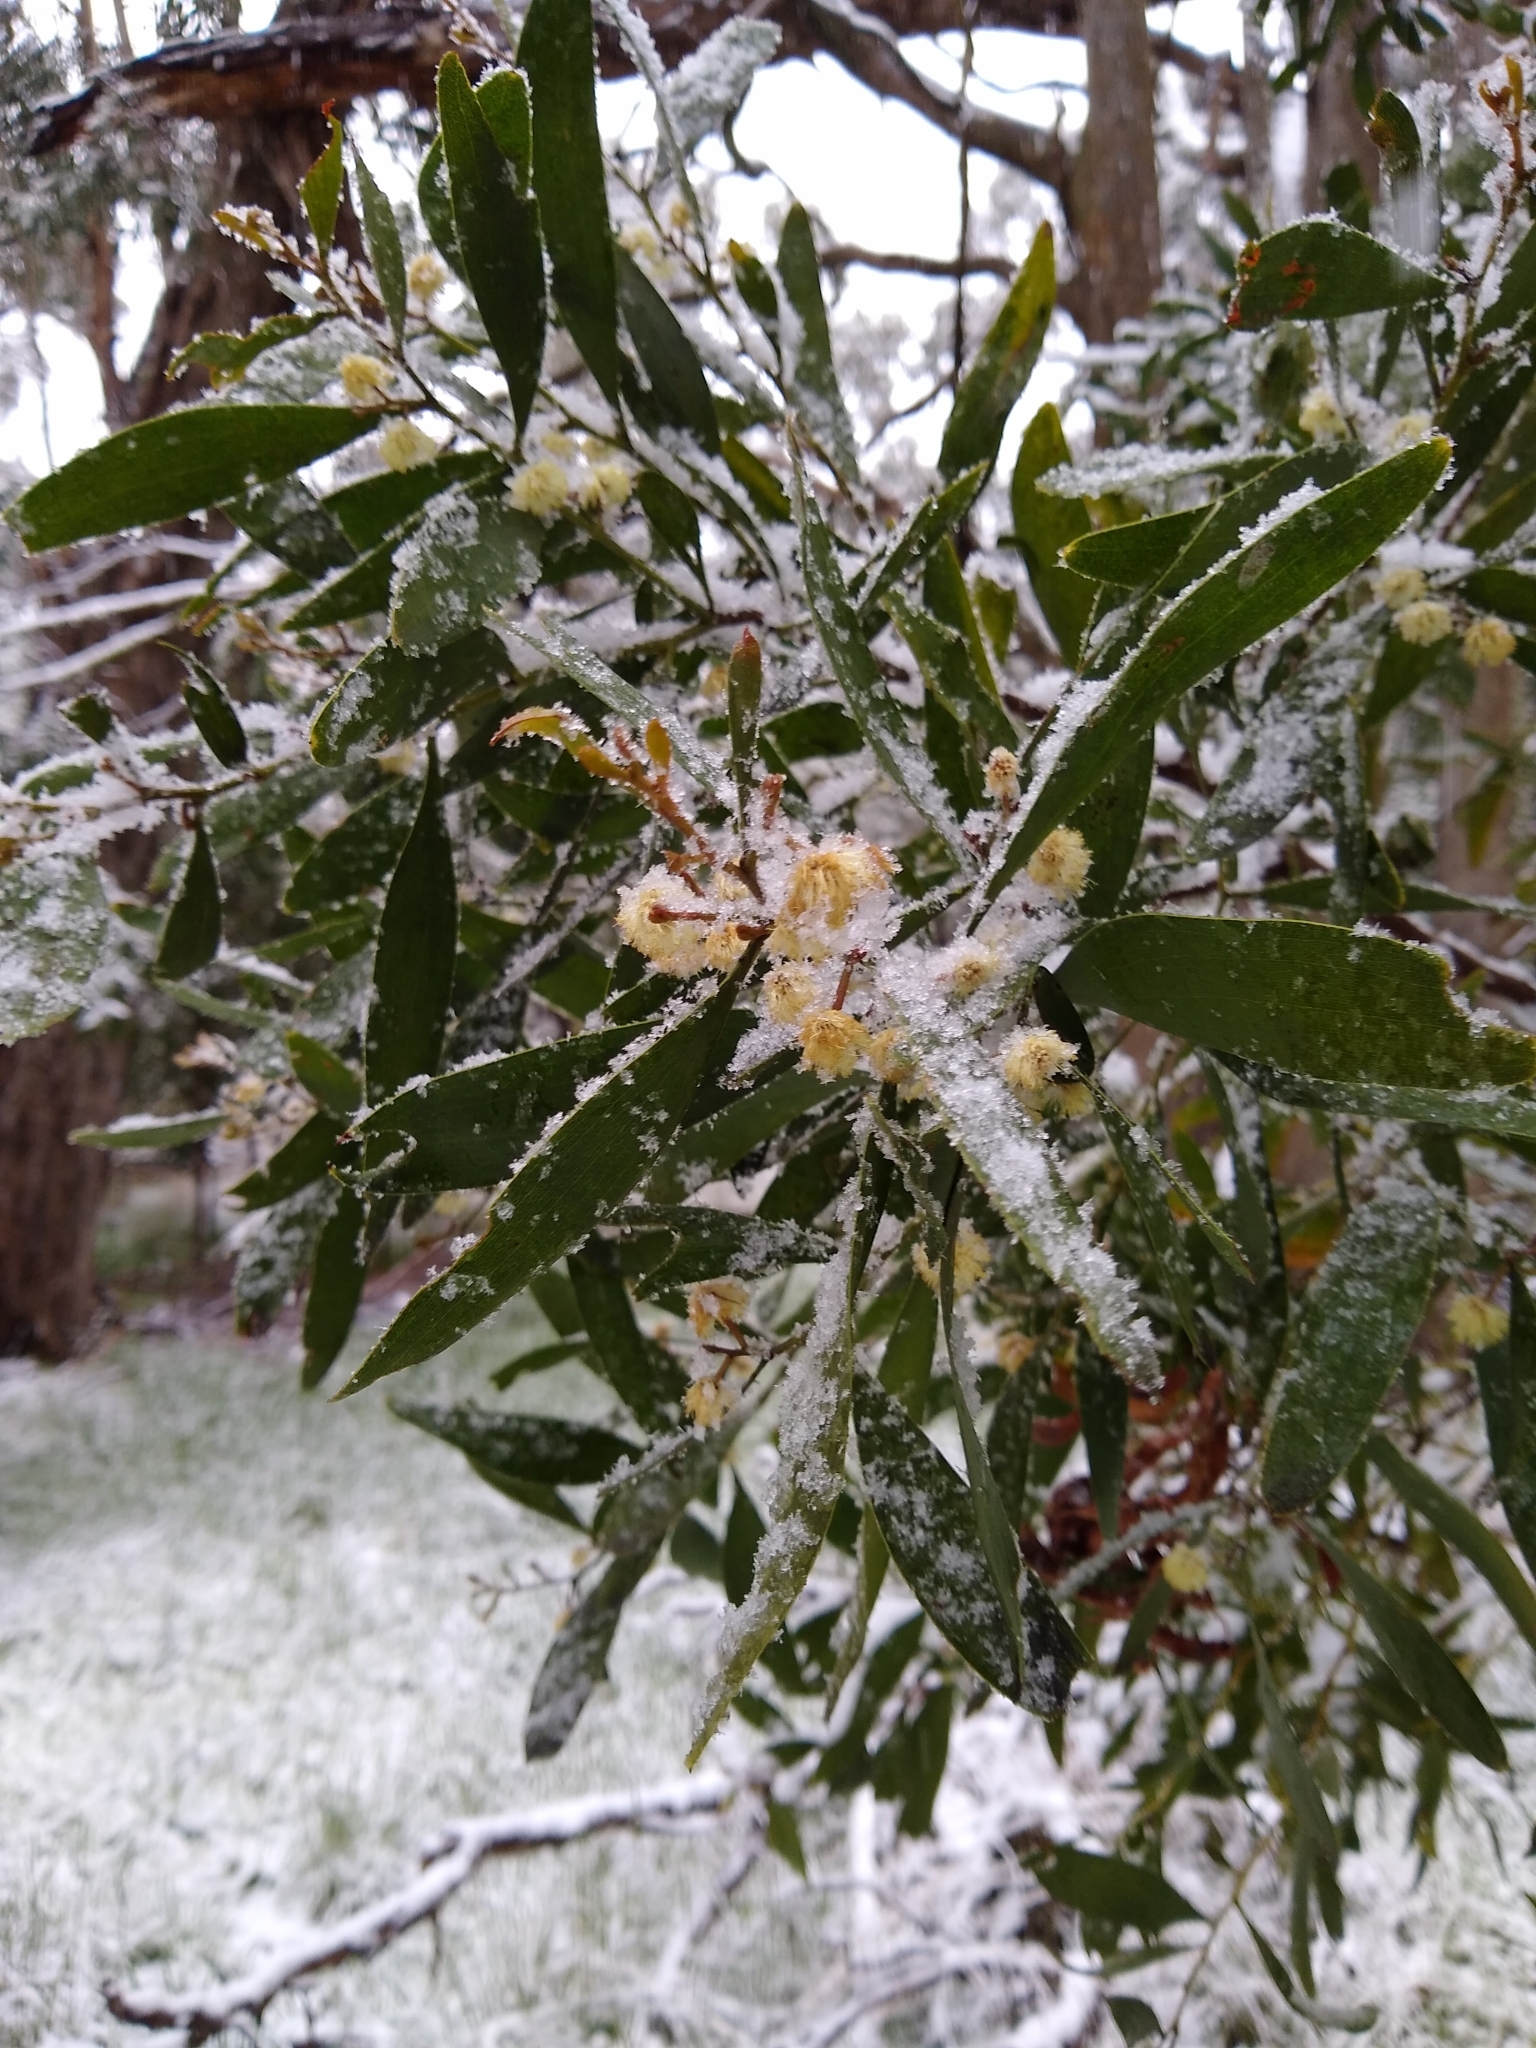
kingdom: Plantae
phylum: Tracheophyta
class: Magnoliopsida
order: Fabales
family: Fabaceae
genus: Acacia
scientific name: Acacia melanoxylon
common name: Blackwood
